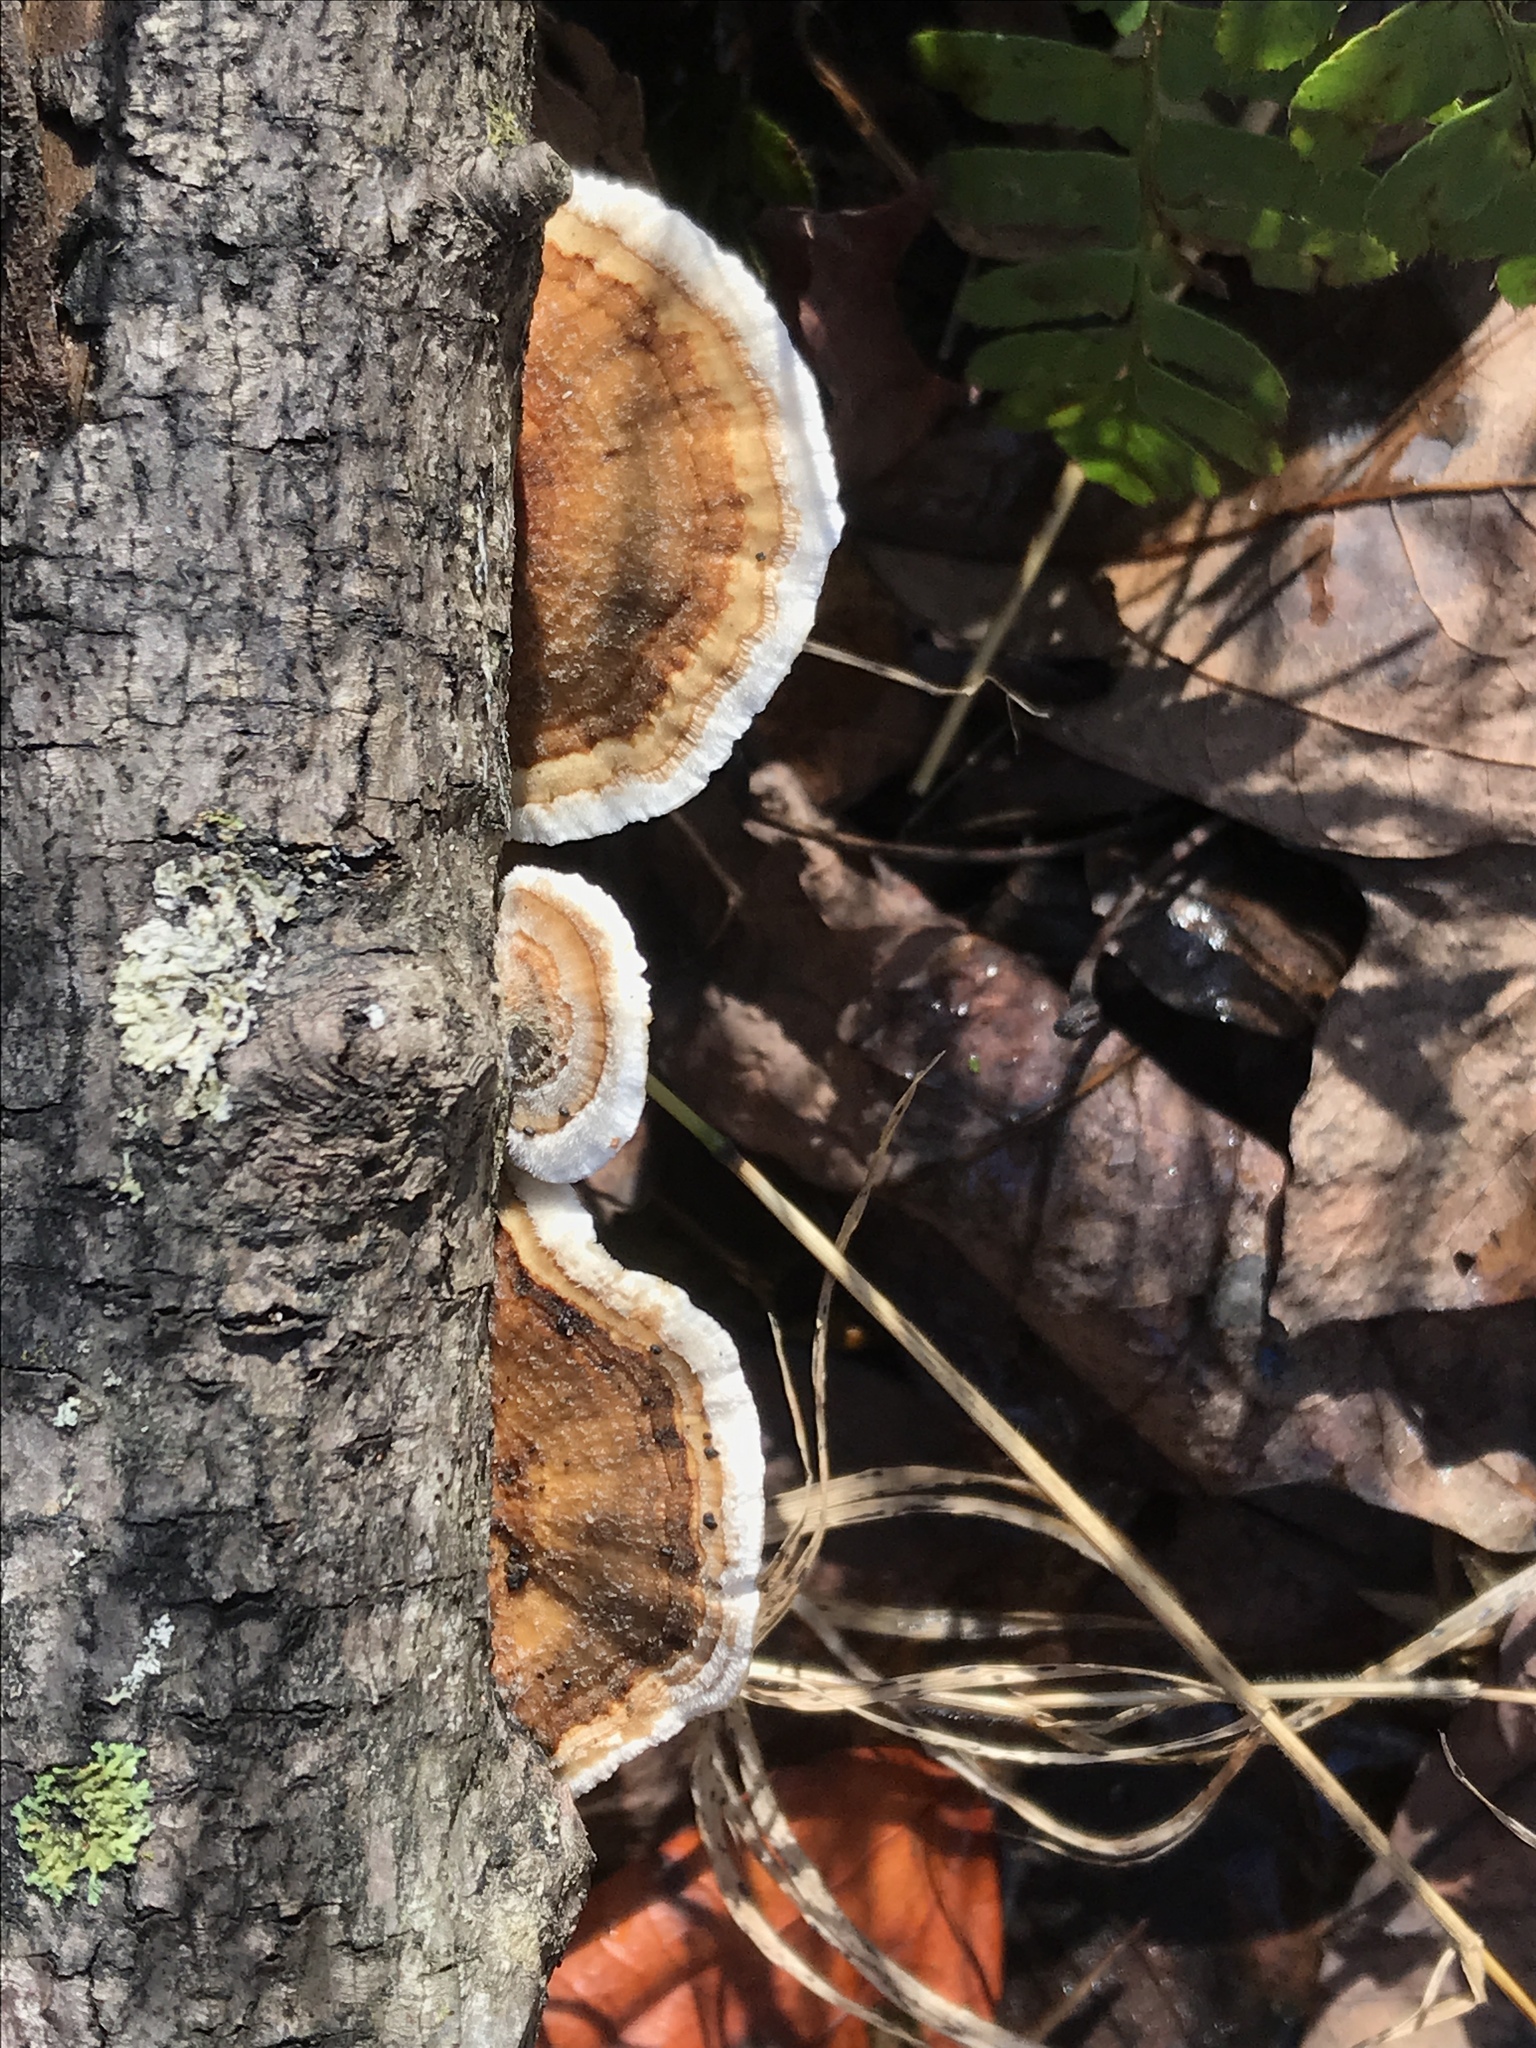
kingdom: Fungi
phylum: Basidiomycota
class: Agaricomycetes
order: Polyporales
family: Polyporaceae
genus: Trametes
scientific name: Trametes ochracea
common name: Ochre bracket
